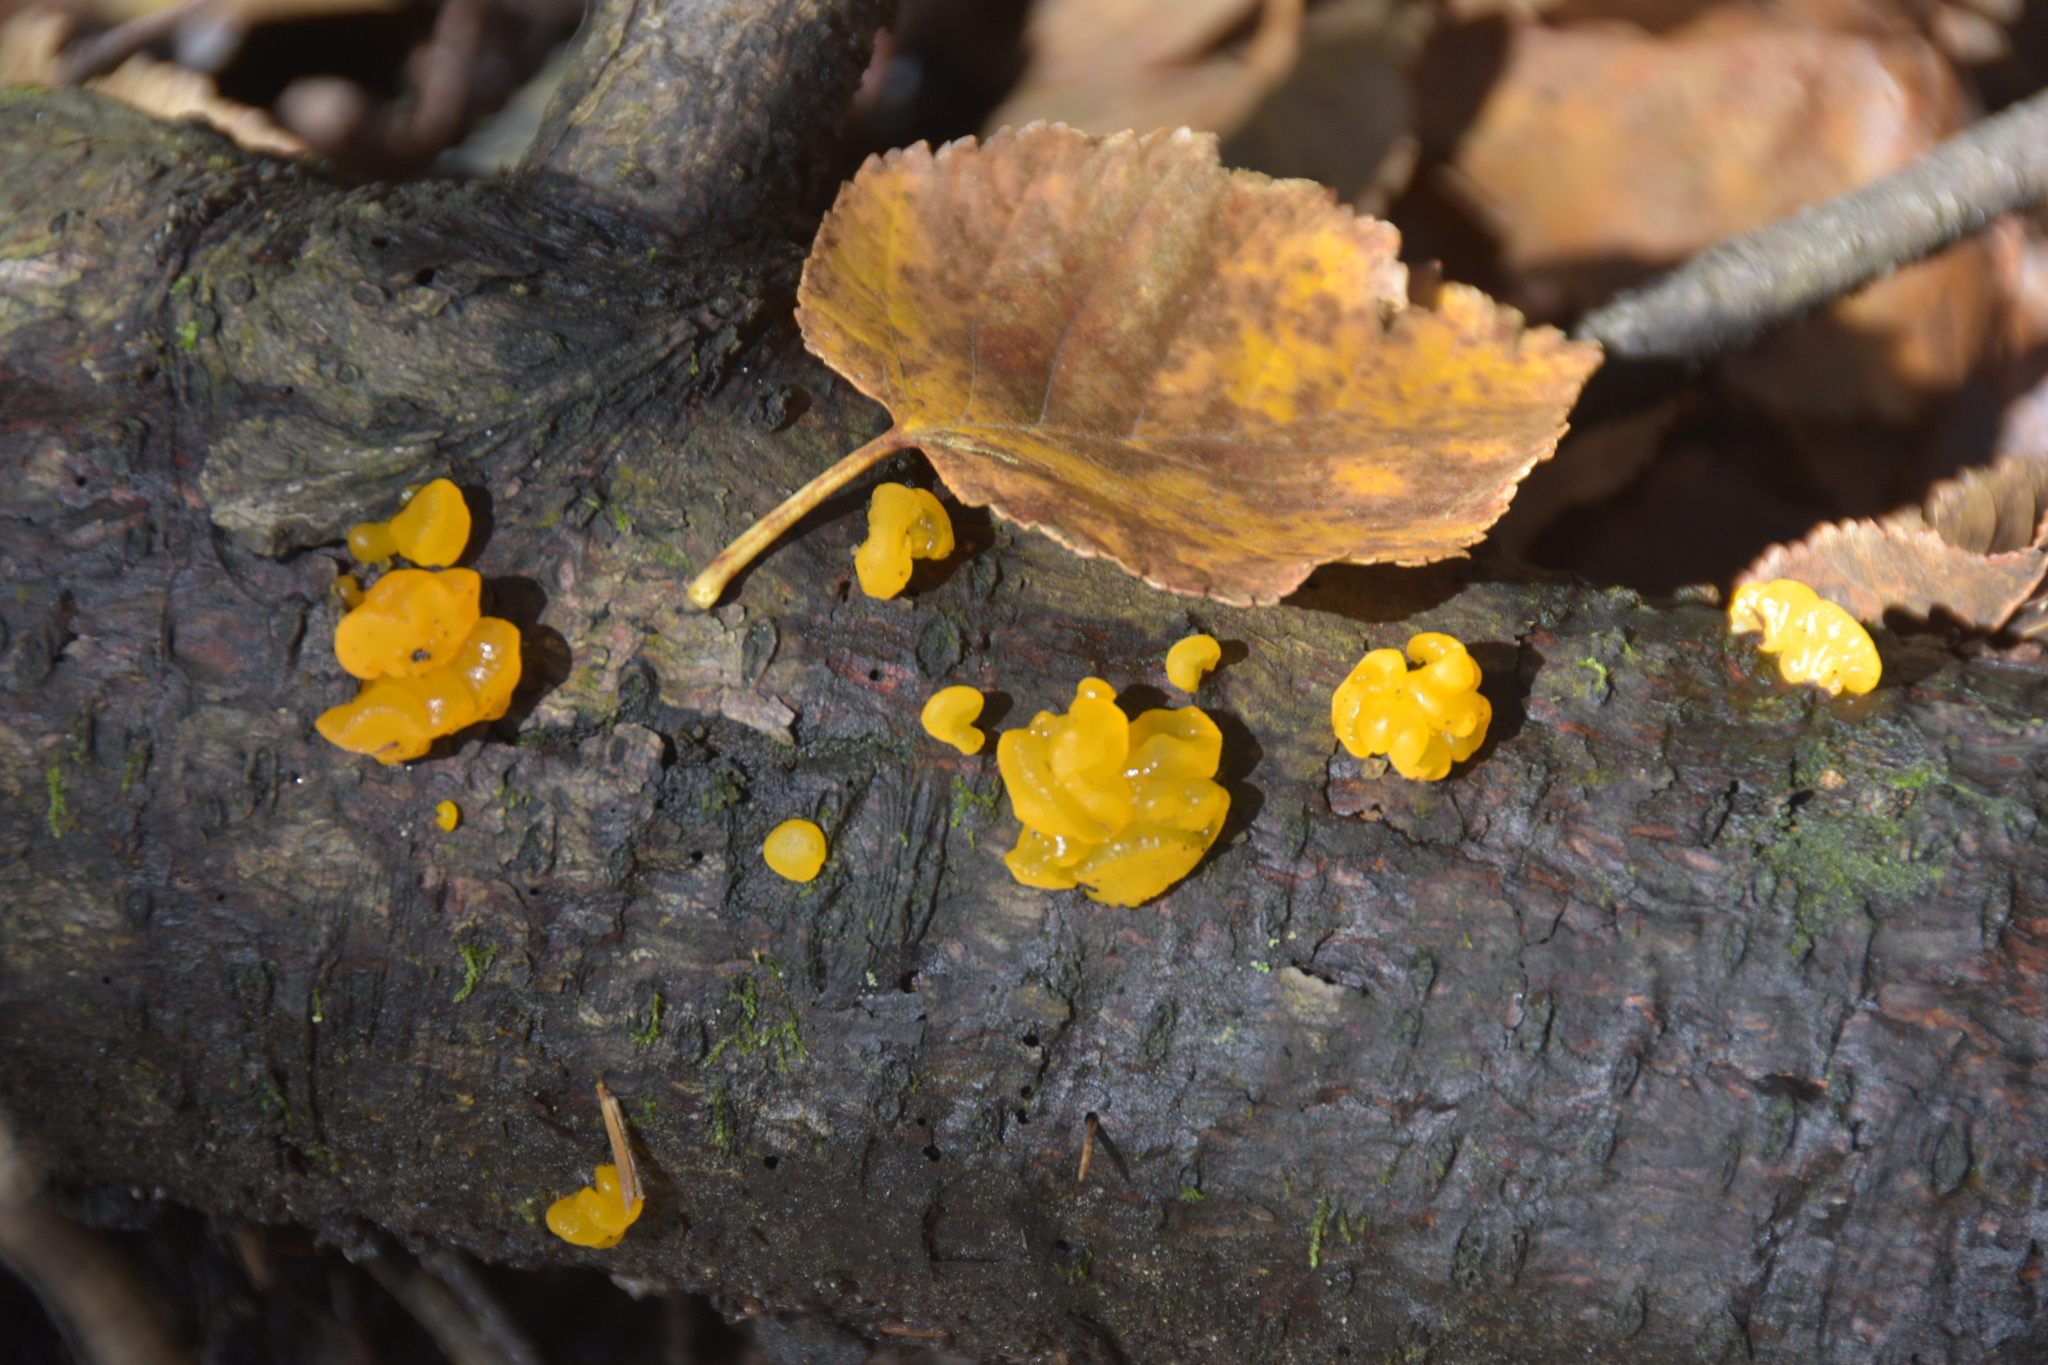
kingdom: Fungi
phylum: Basidiomycota
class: Dacrymycetes
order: Dacrymycetales
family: Dacrymycetaceae
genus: Dacrymyces
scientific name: Dacrymyces chrysospermus
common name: Orange jelly spot
